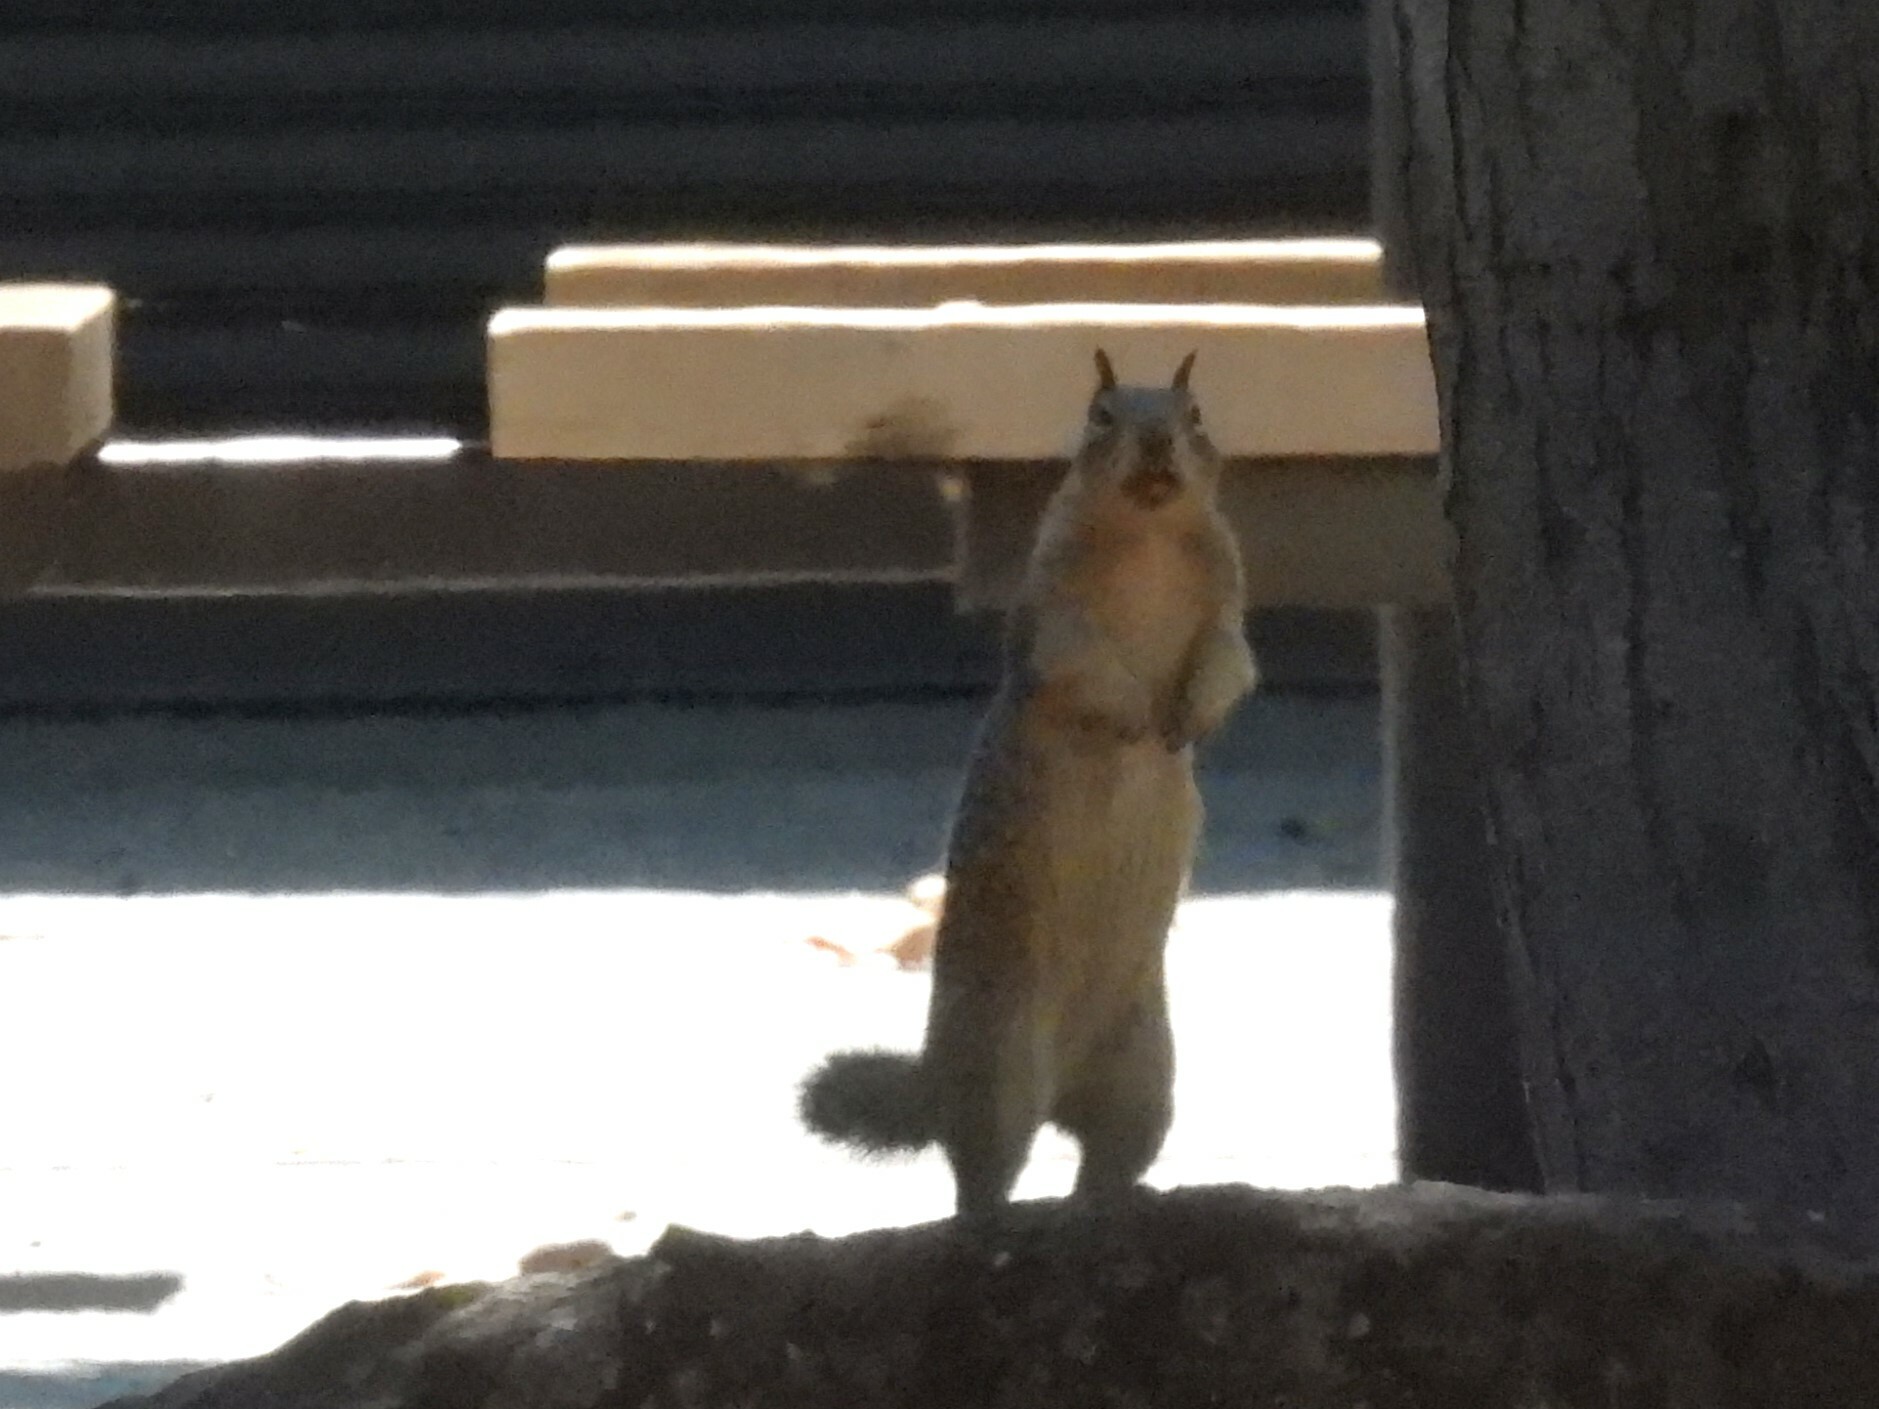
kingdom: Animalia
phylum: Chordata
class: Mammalia
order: Rodentia
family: Sciuridae
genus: Otospermophilus
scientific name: Otospermophilus beecheyi
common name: California ground squirrel
